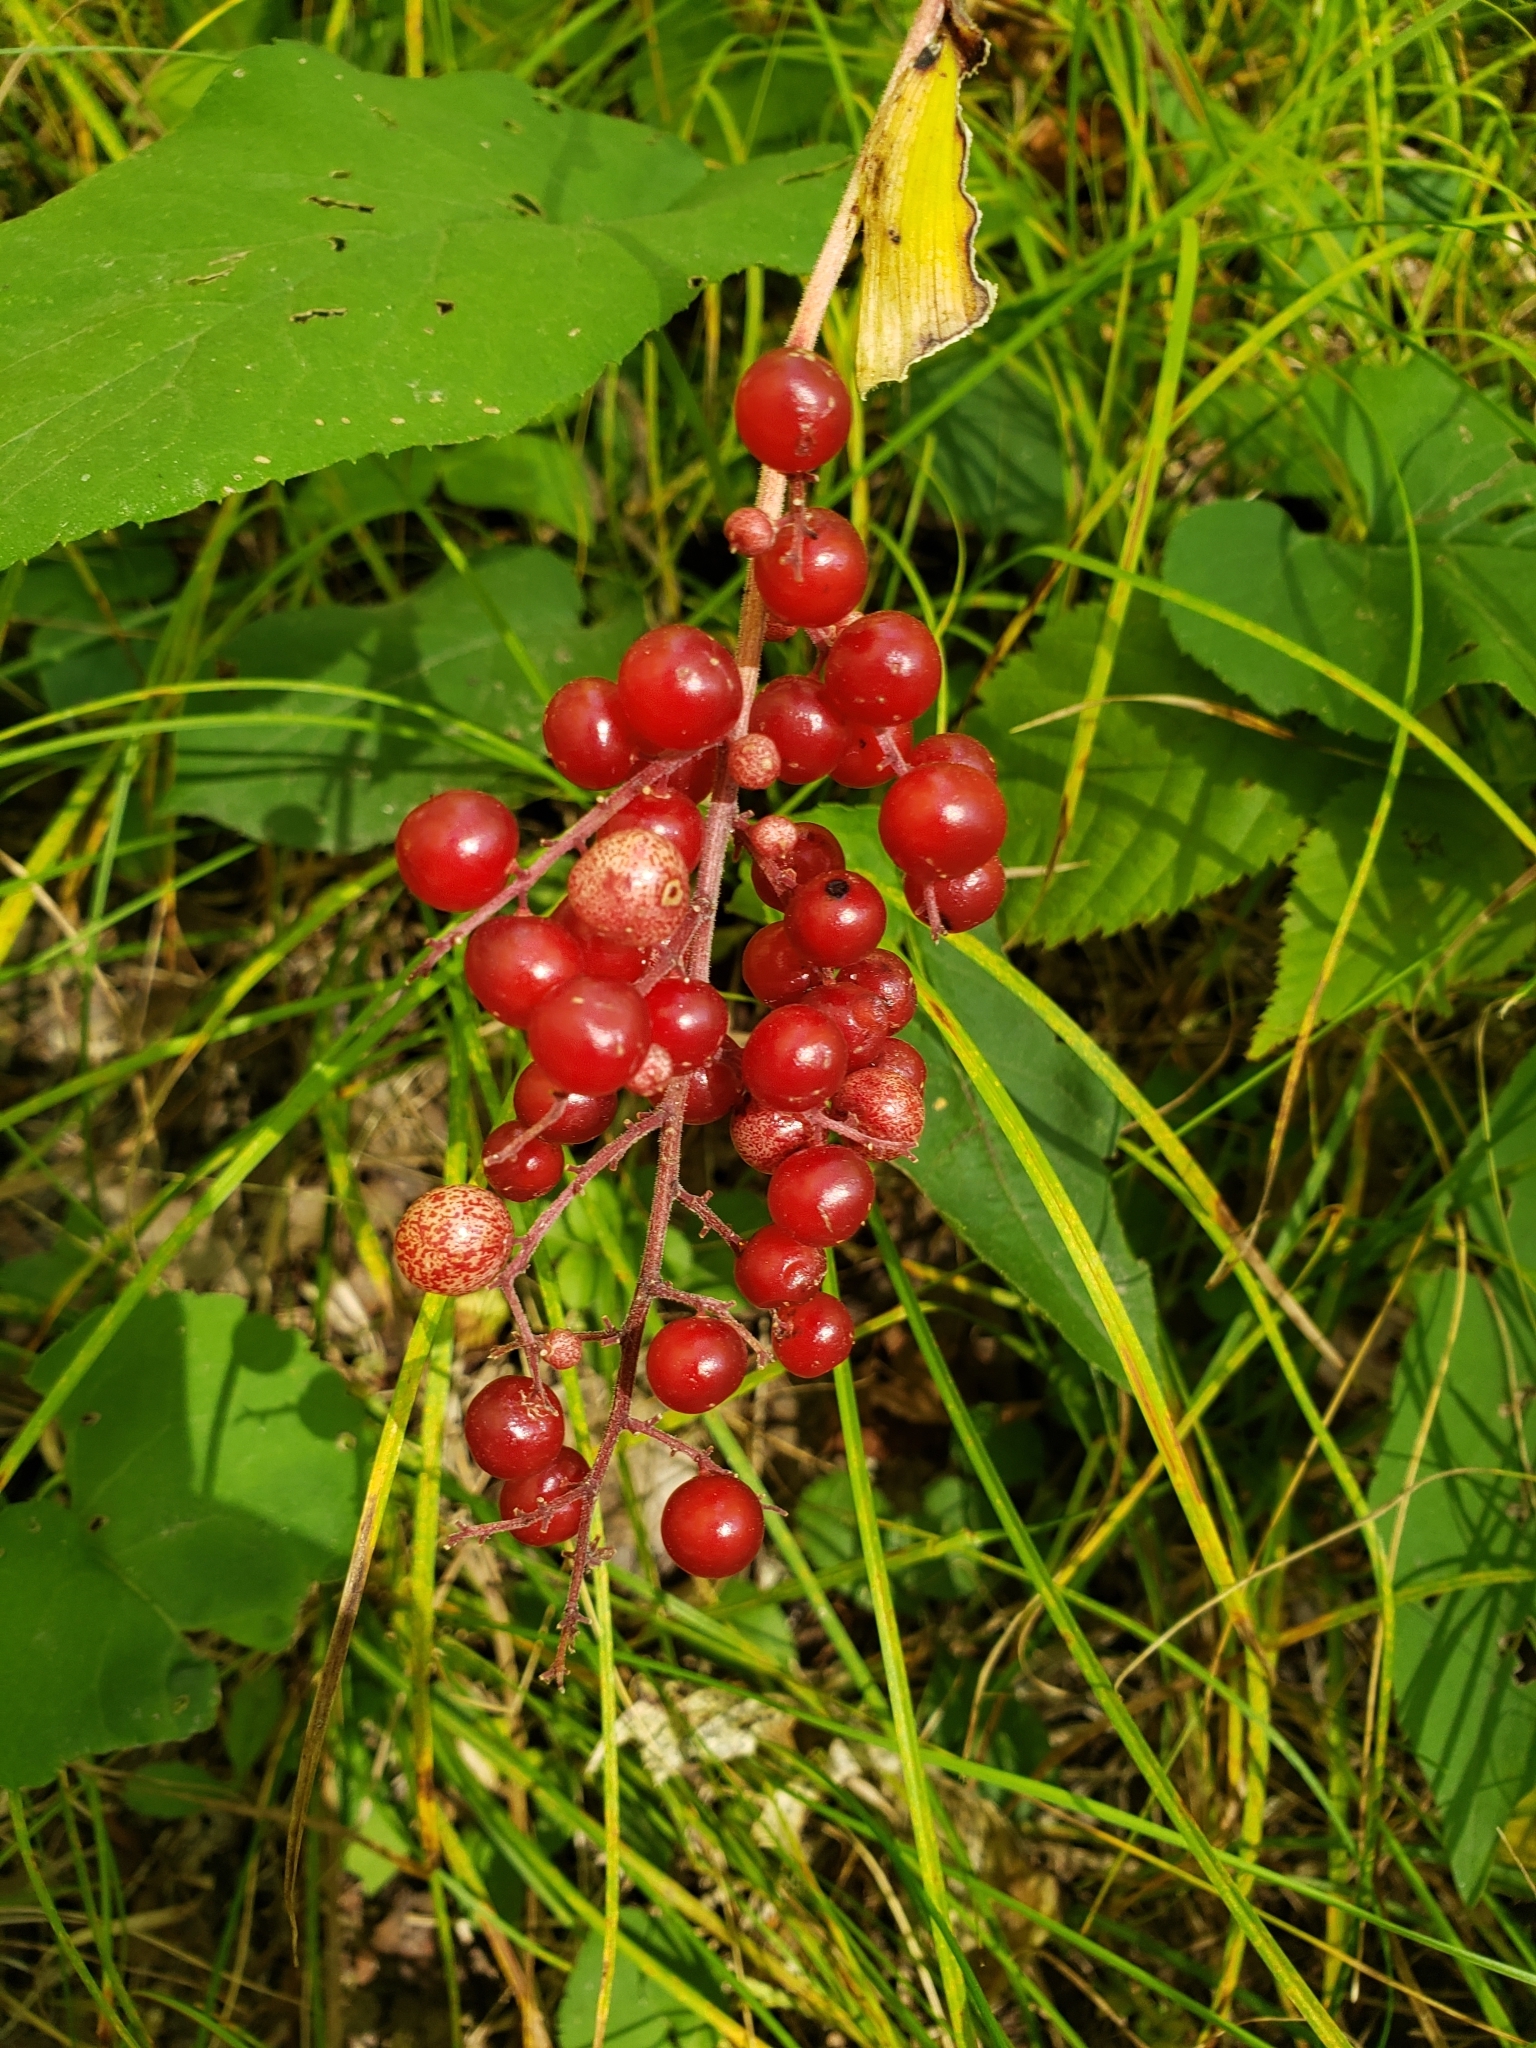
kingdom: Plantae
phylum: Tracheophyta
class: Liliopsida
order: Asparagales
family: Asparagaceae
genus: Maianthemum
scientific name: Maianthemum racemosum
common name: False spikenard
